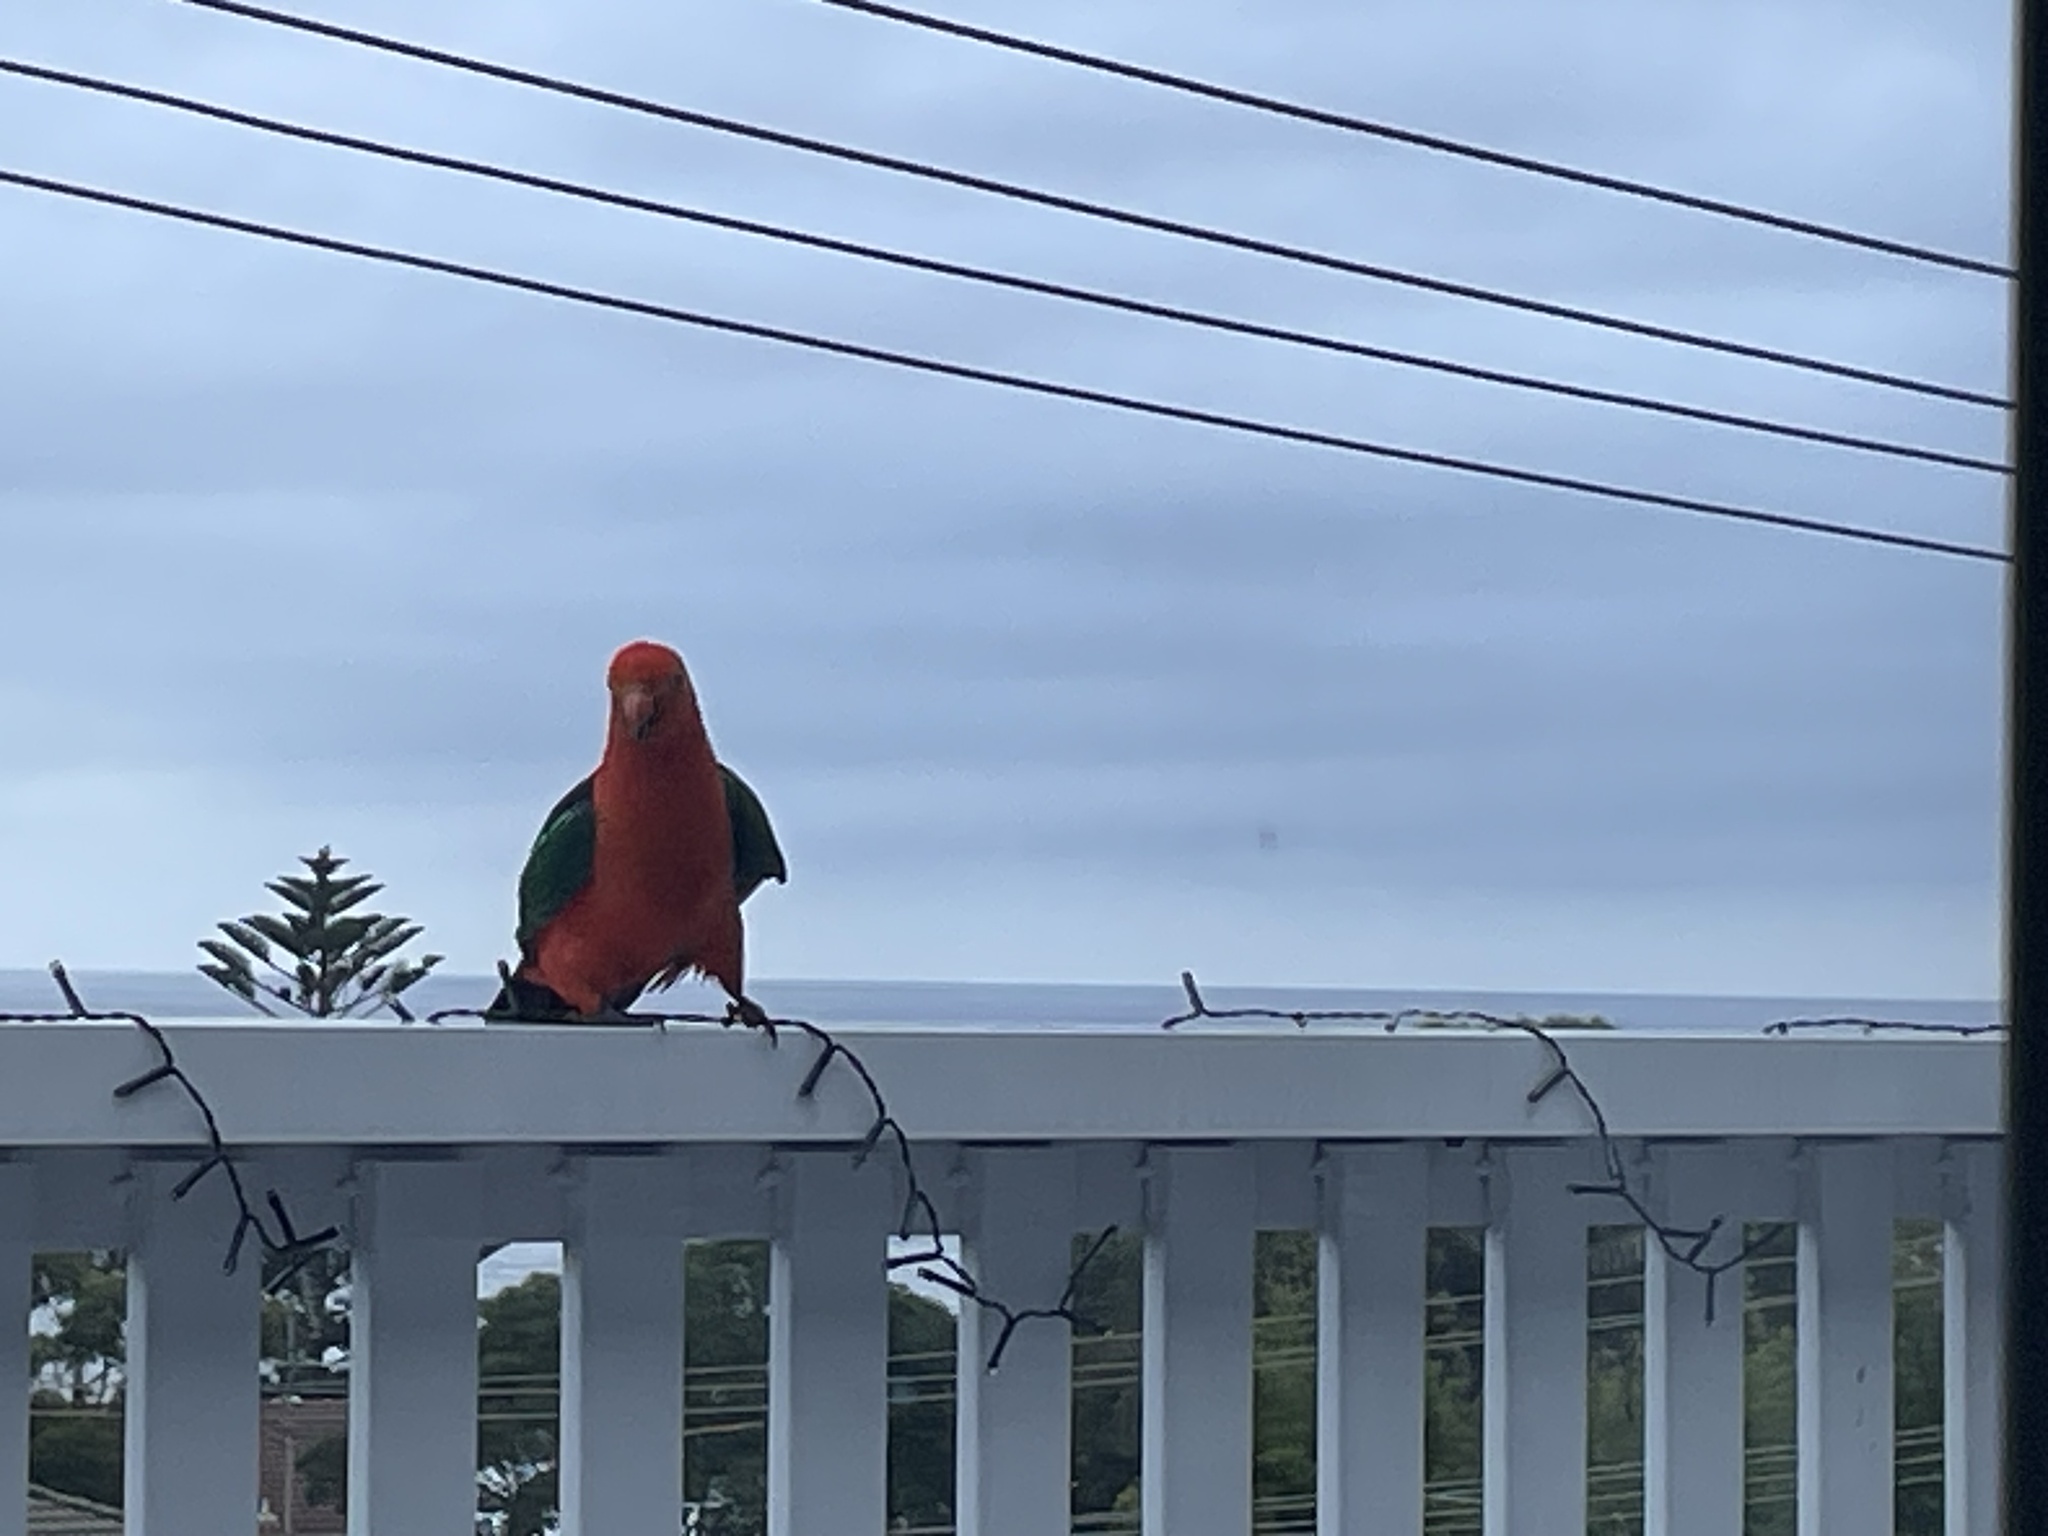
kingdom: Animalia
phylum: Chordata
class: Aves
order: Psittaciformes
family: Psittacidae
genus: Alisterus
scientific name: Alisterus scapularis
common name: Australian king parrot
